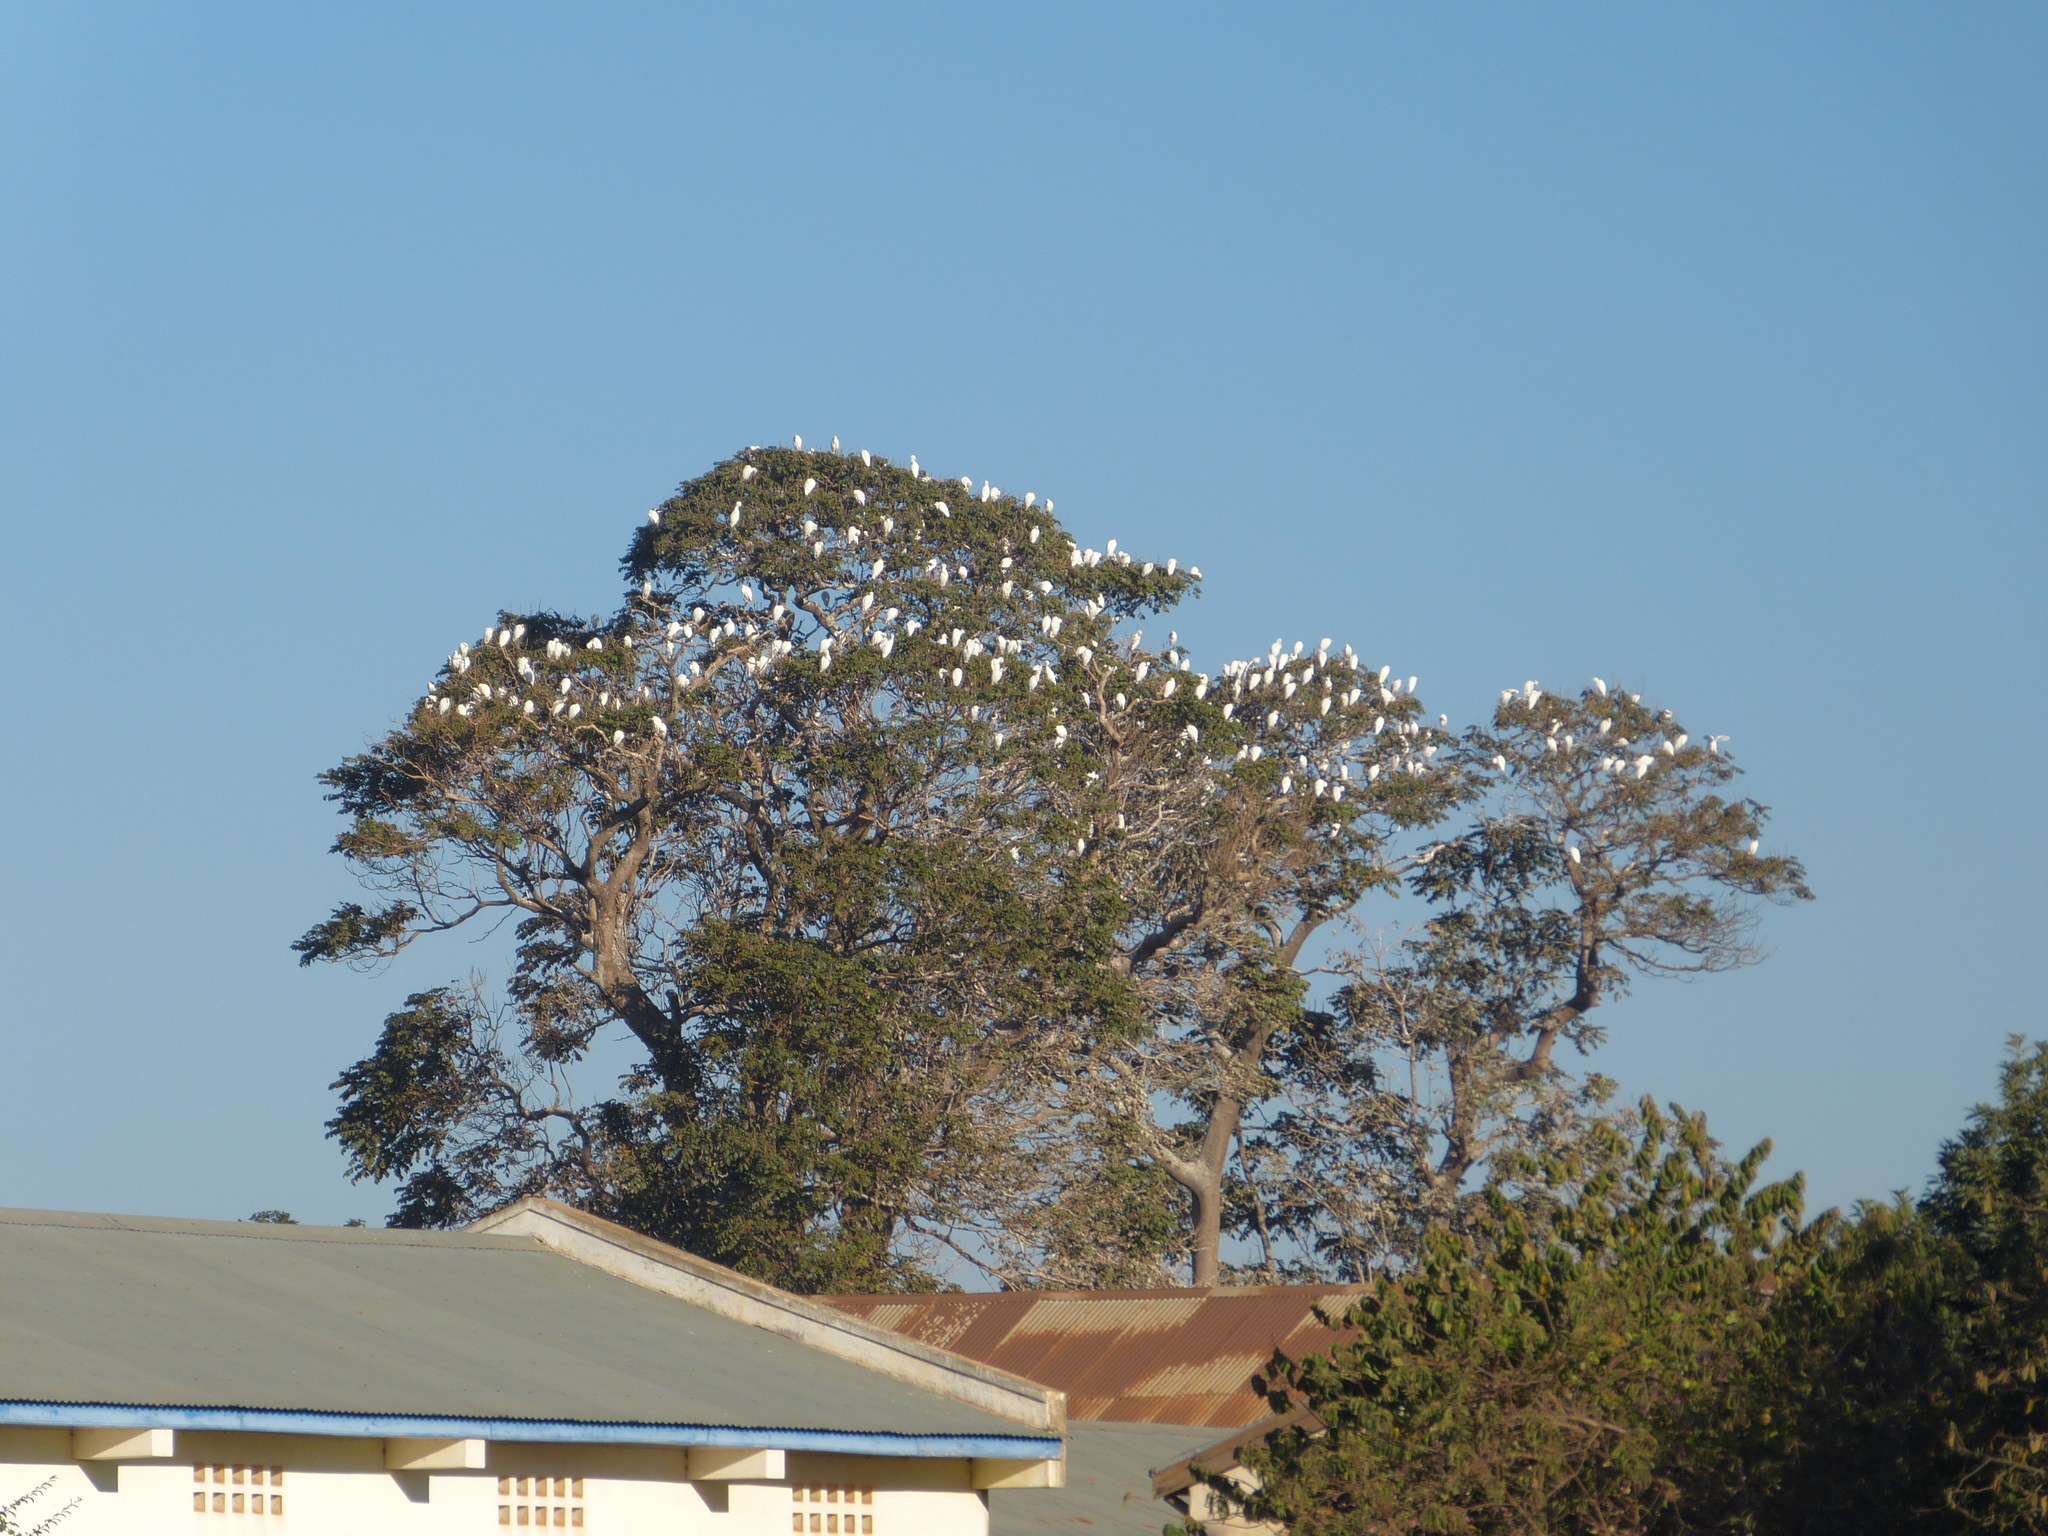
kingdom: Animalia
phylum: Chordata
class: Aves
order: Pelecaniformes
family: Ardeidae
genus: Bubulcus
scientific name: Bubulcus ibis
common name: Cattle egret
